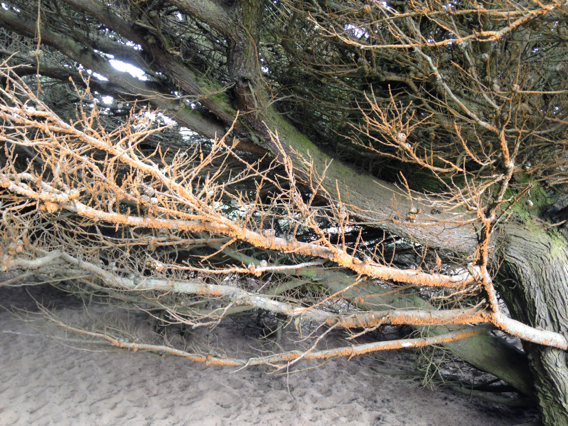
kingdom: Plantae
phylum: Chlorophyta
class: Ulvophyceae
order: Trentepohliales
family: Trentepohliaceae
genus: Trentepohlia
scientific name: Trentepohlia aurea
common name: Orange rock hair
